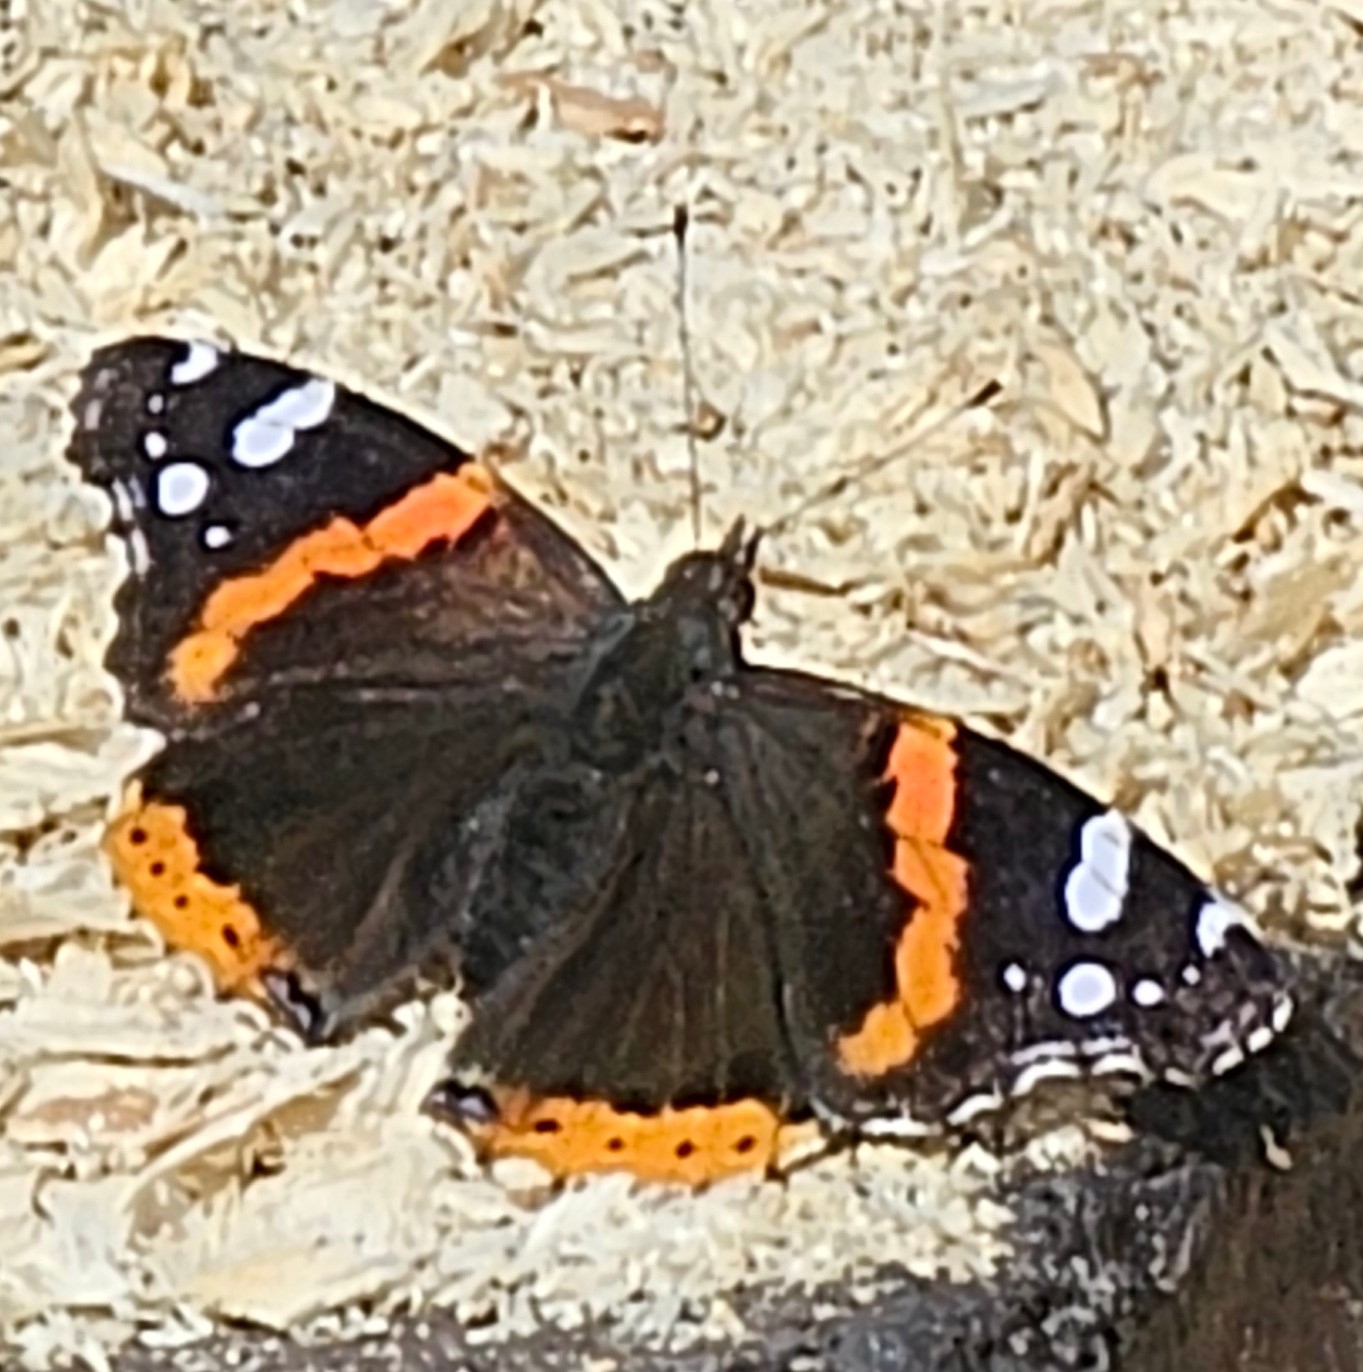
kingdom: Animalia
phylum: Arthropoda
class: Insecta
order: Lepidoptera
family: Nymphalidae
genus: Vanessa
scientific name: Vanessa atalanta
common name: Red admiral
